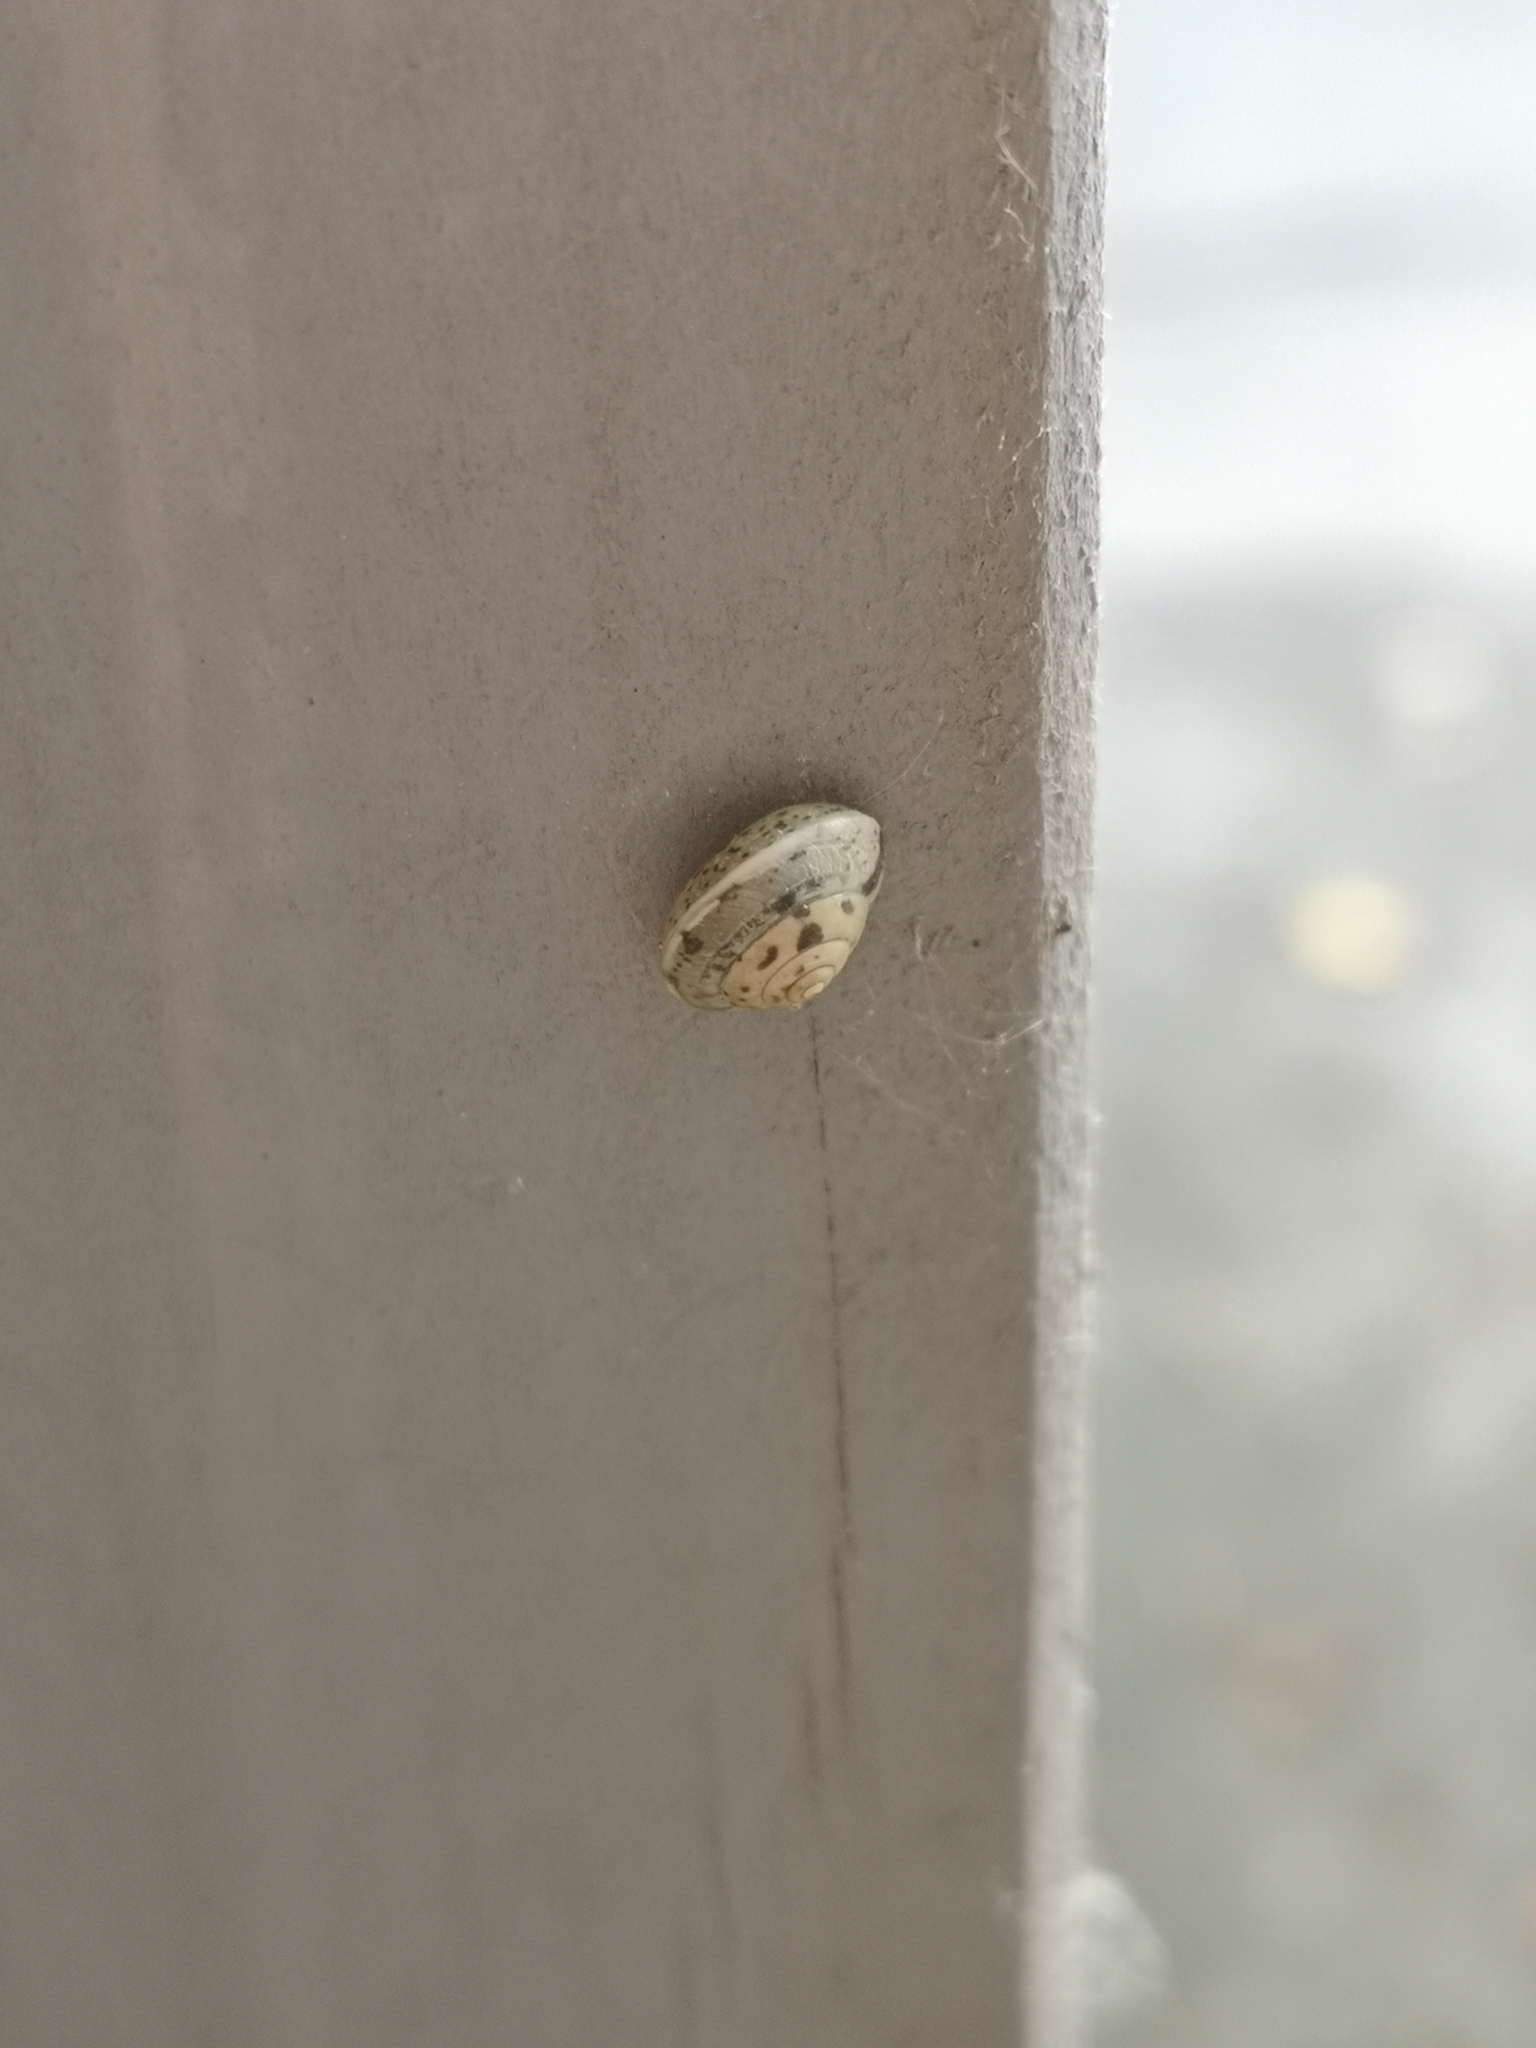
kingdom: Animalia
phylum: Mollusca
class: Gastropoda
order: Stylommatophora
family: Hygromiidae
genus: Hygromia
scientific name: Hygromia cinctella
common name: Girdled snail
